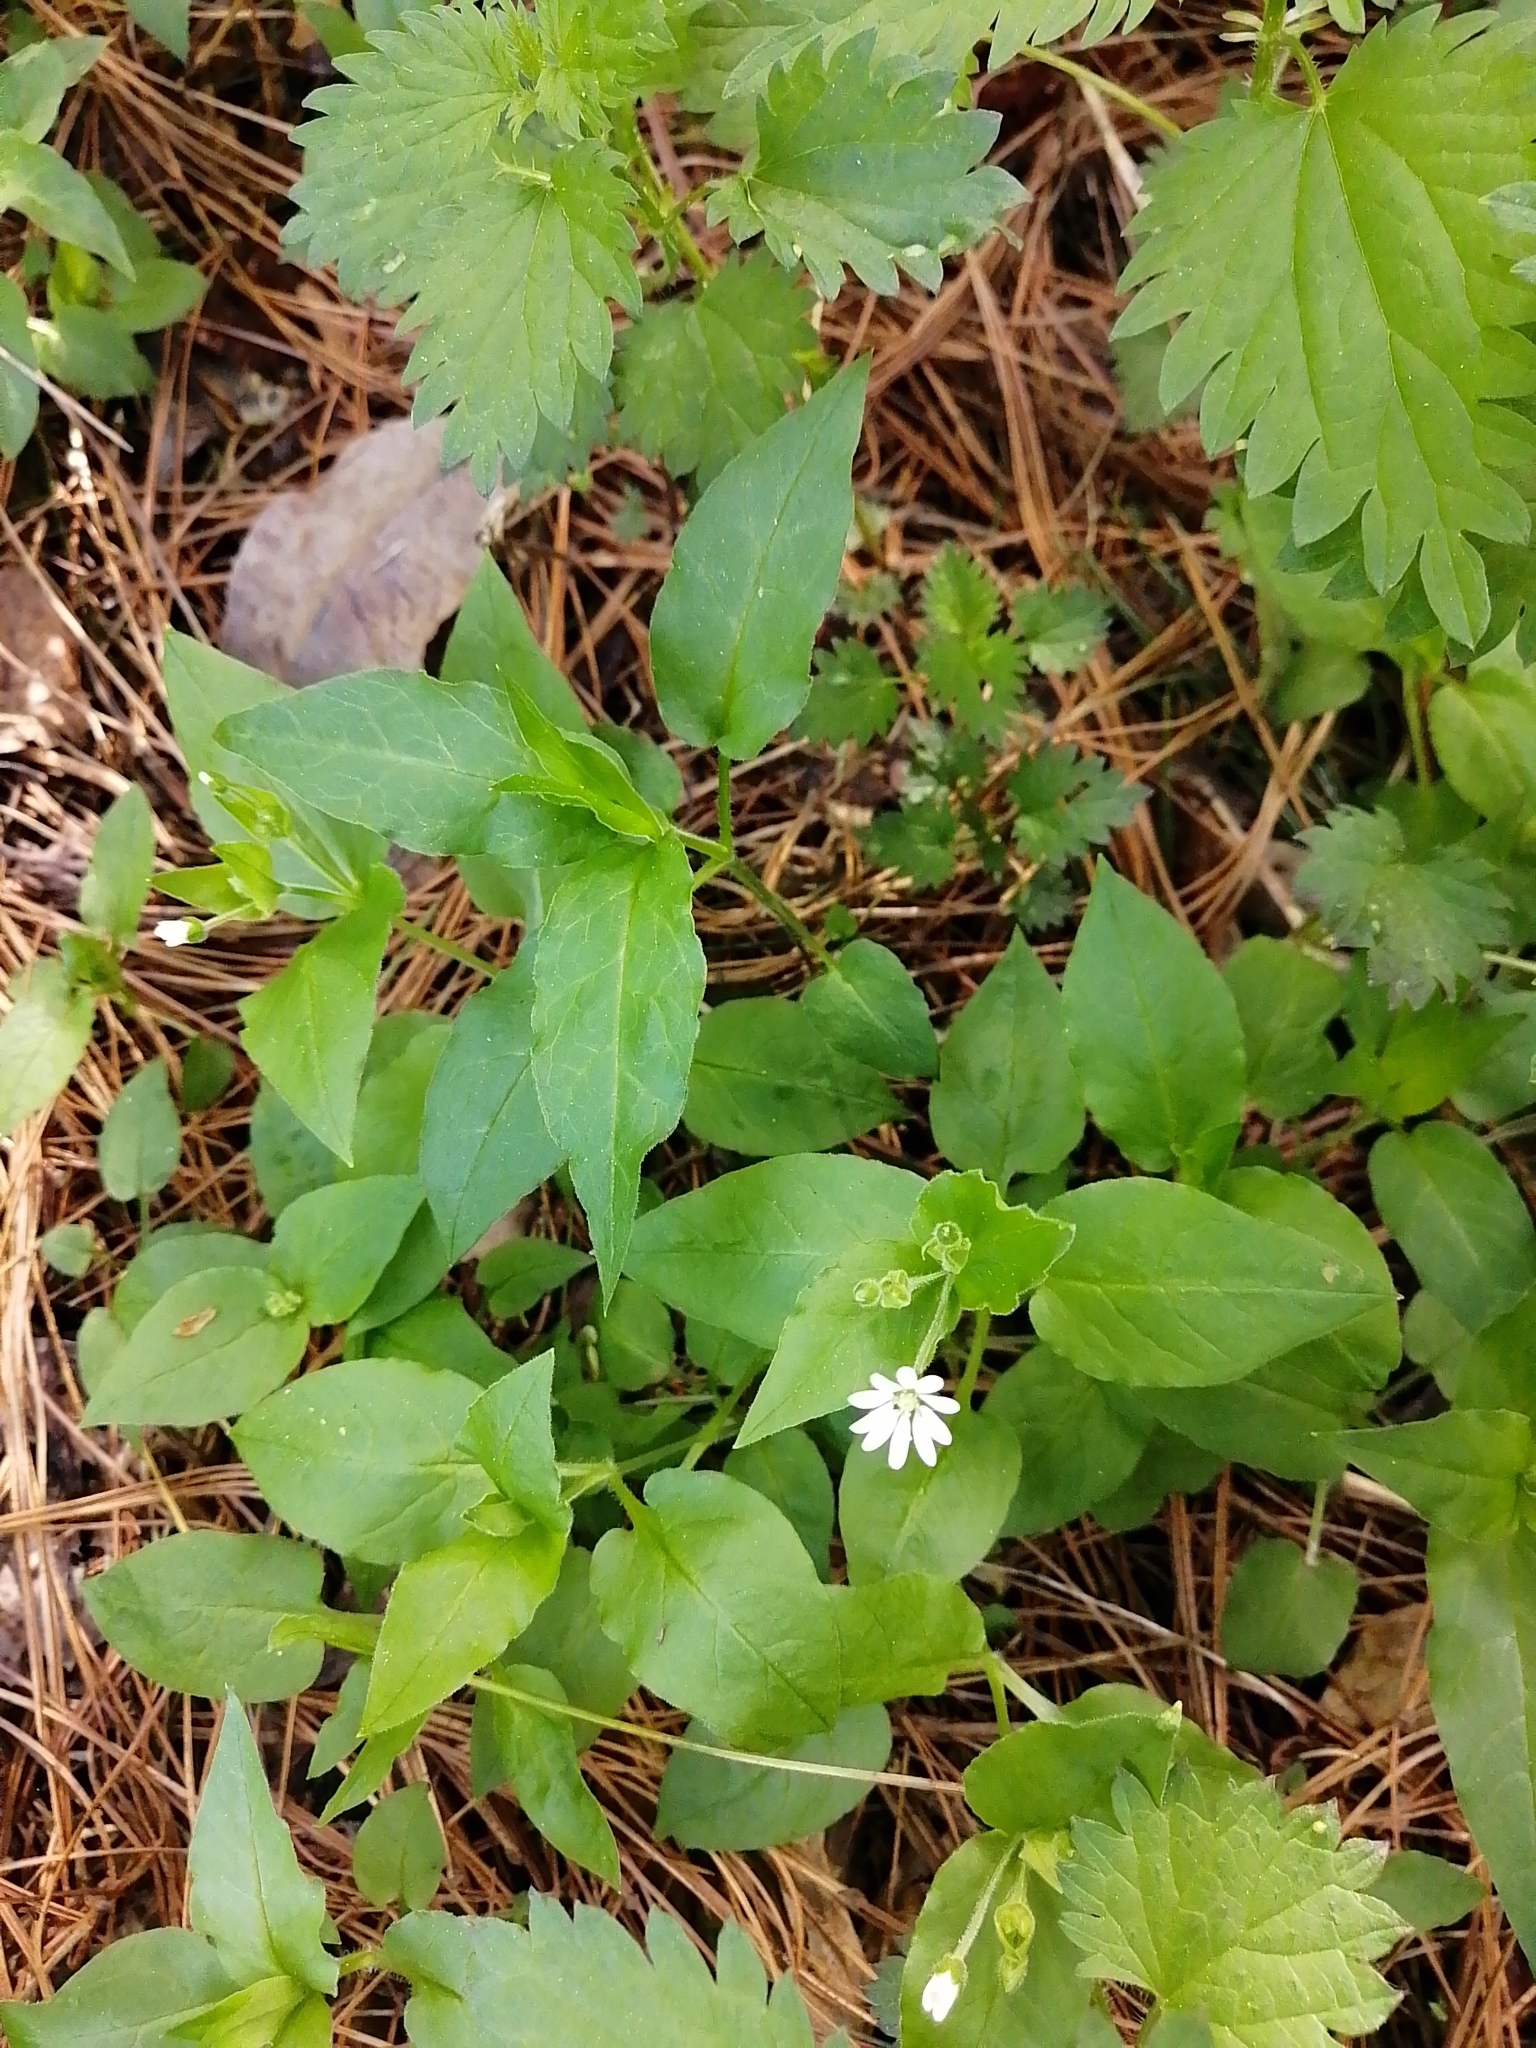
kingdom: Plantae
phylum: Tracheophyta
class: Magnoliopsida
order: Caryophyllales
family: Caryophyllaceae
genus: Stellaria
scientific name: Stellaria bungeana
